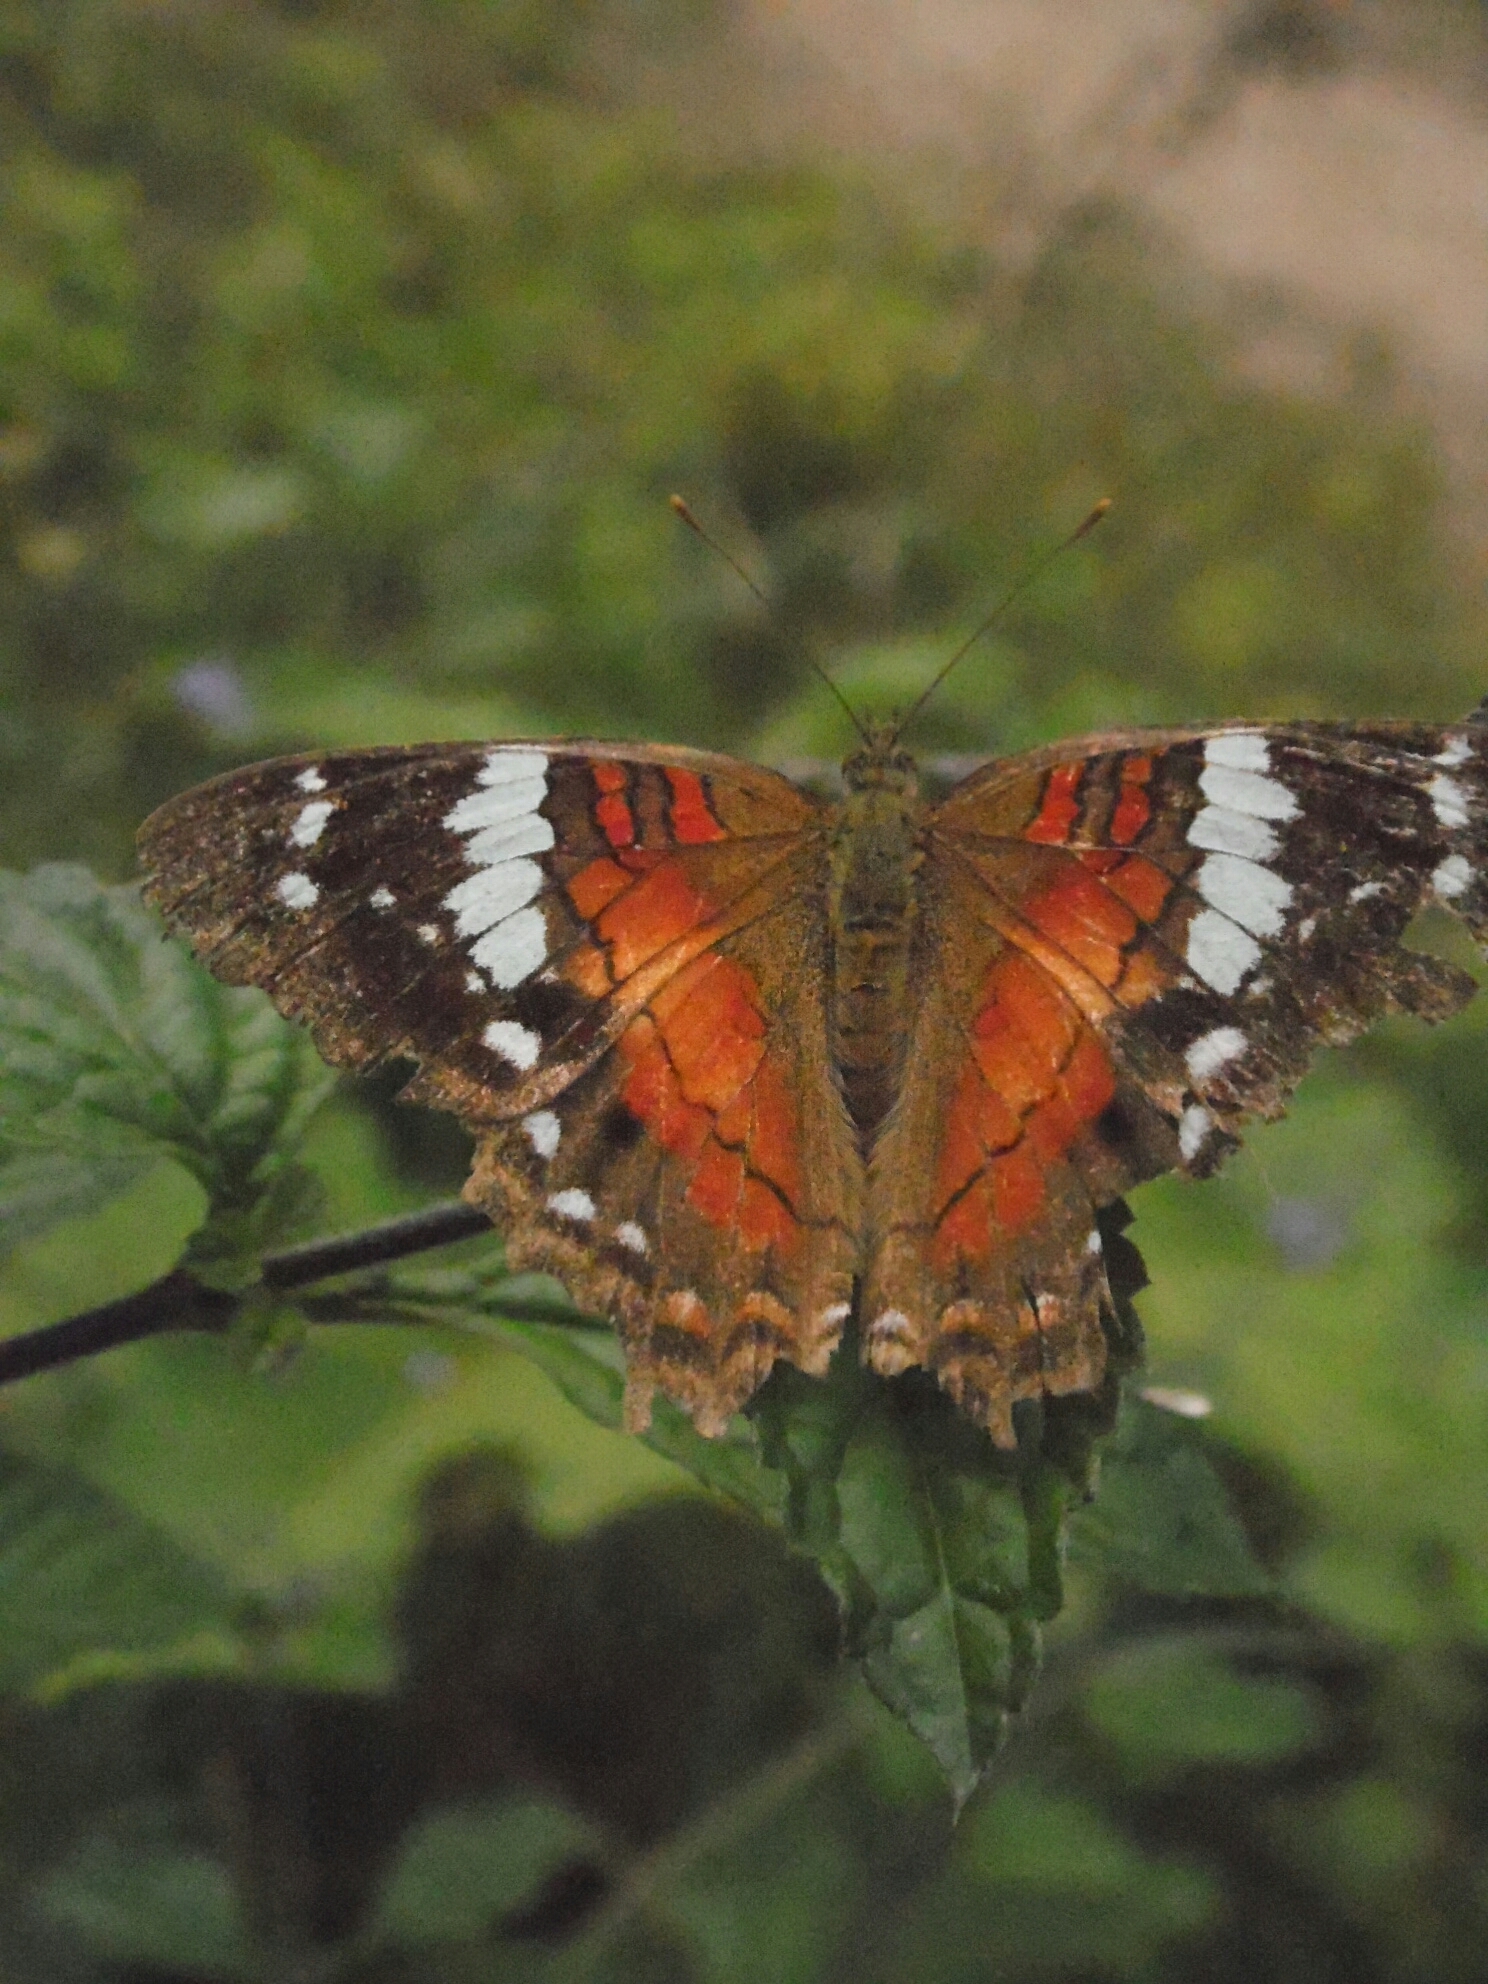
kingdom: Animalia
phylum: Arthropoda
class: Insecta
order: Lepidoptera
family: Nymphalidae
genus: Anartia
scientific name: Anartia amathea
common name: Red peacock
